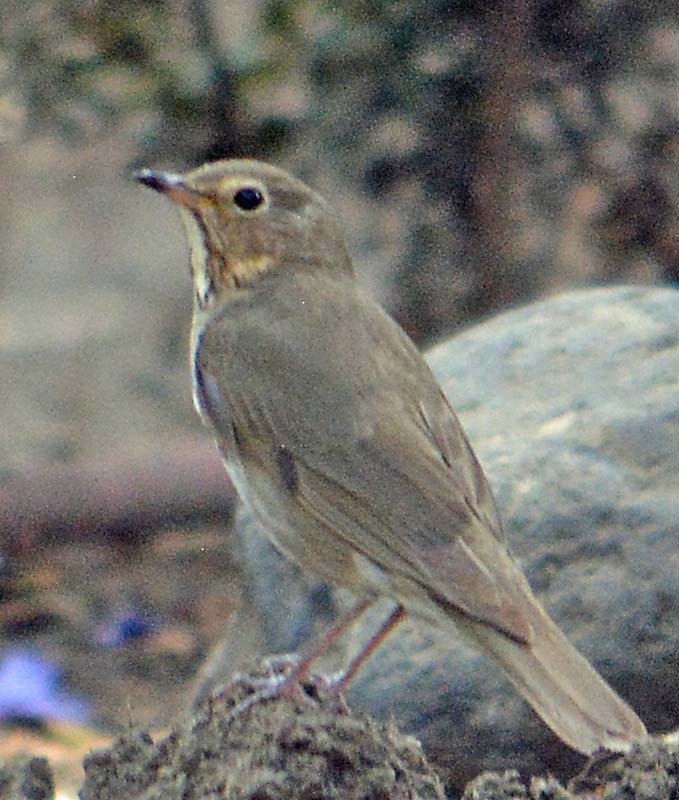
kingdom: Animalia
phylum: Chordata
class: Aves
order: Passeriformes
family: Turdidae
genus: Catharus
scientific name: Catharus ustulatus
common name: Swainson's thrush
